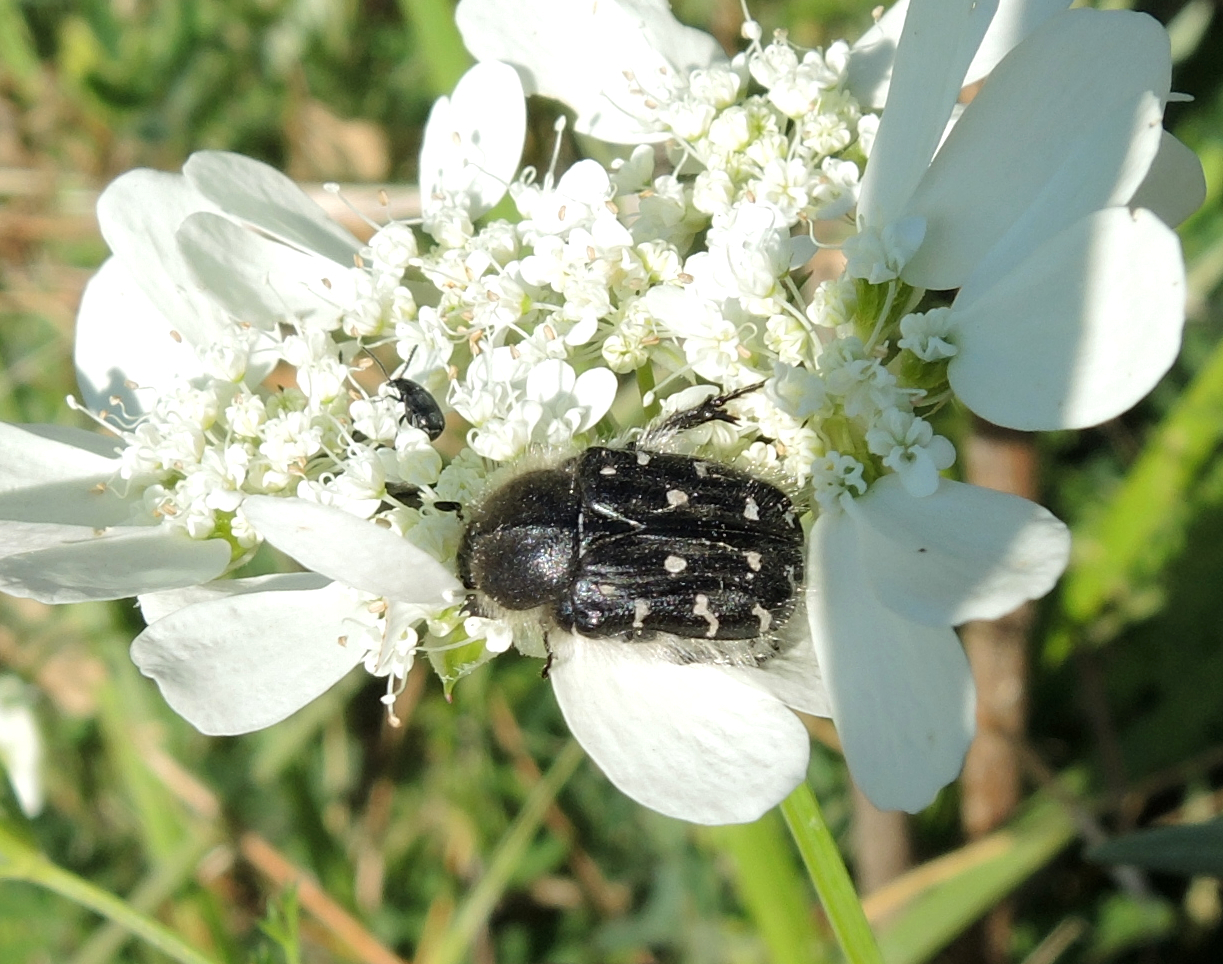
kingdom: Animalia
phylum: Arthropoda
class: Insecta
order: Coleoptera
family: Scarabaeidae
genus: Tropinota
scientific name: Tropinota hirta
